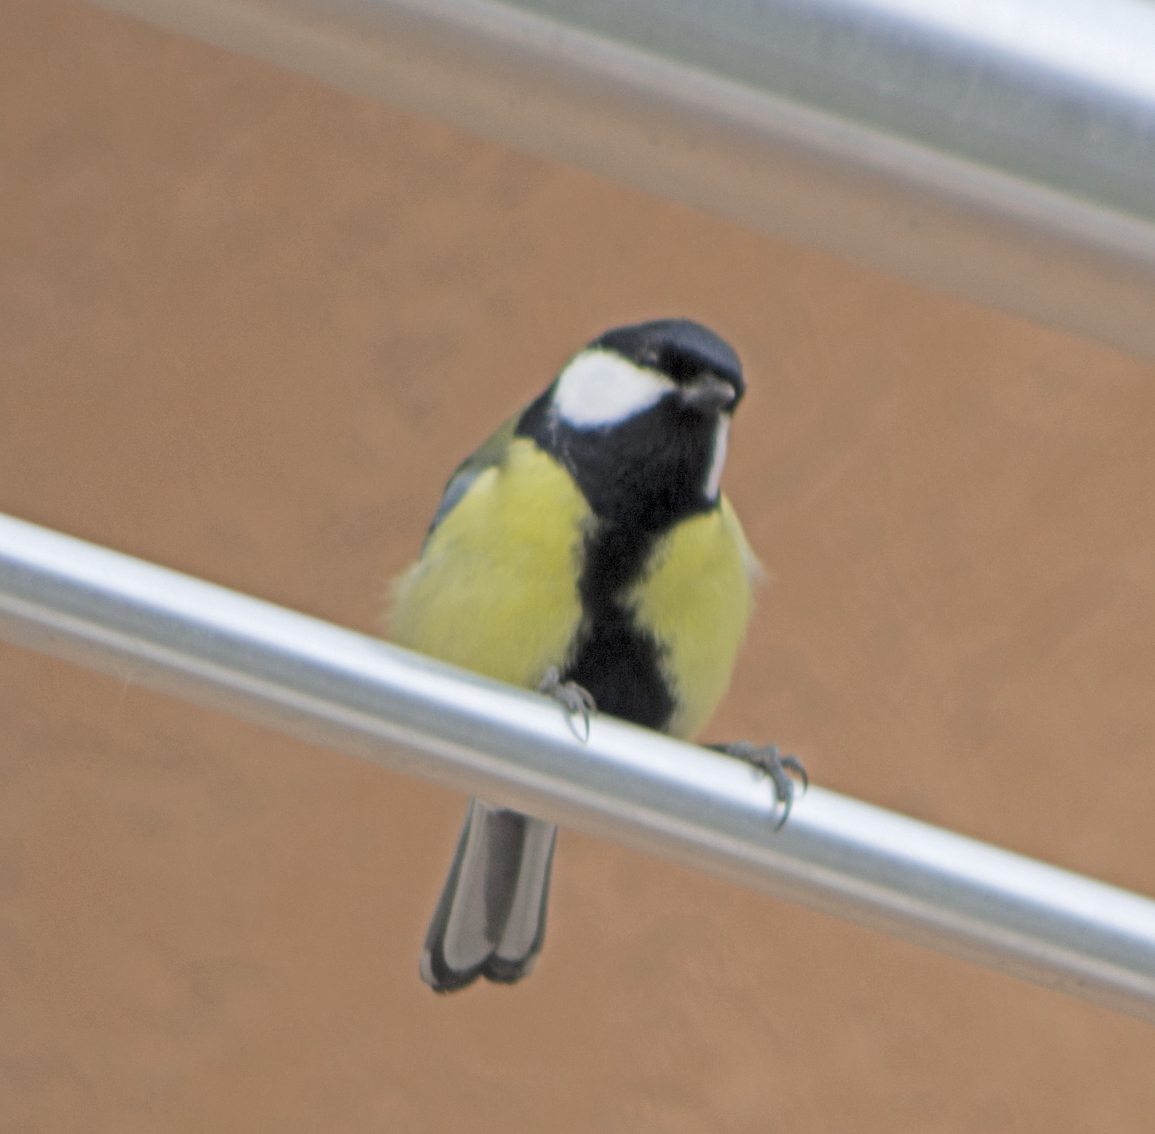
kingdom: Animalia
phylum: Chordata
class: Aves
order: Passeriformes
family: Paridae
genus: Parus
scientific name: Parus major
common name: Great tit
